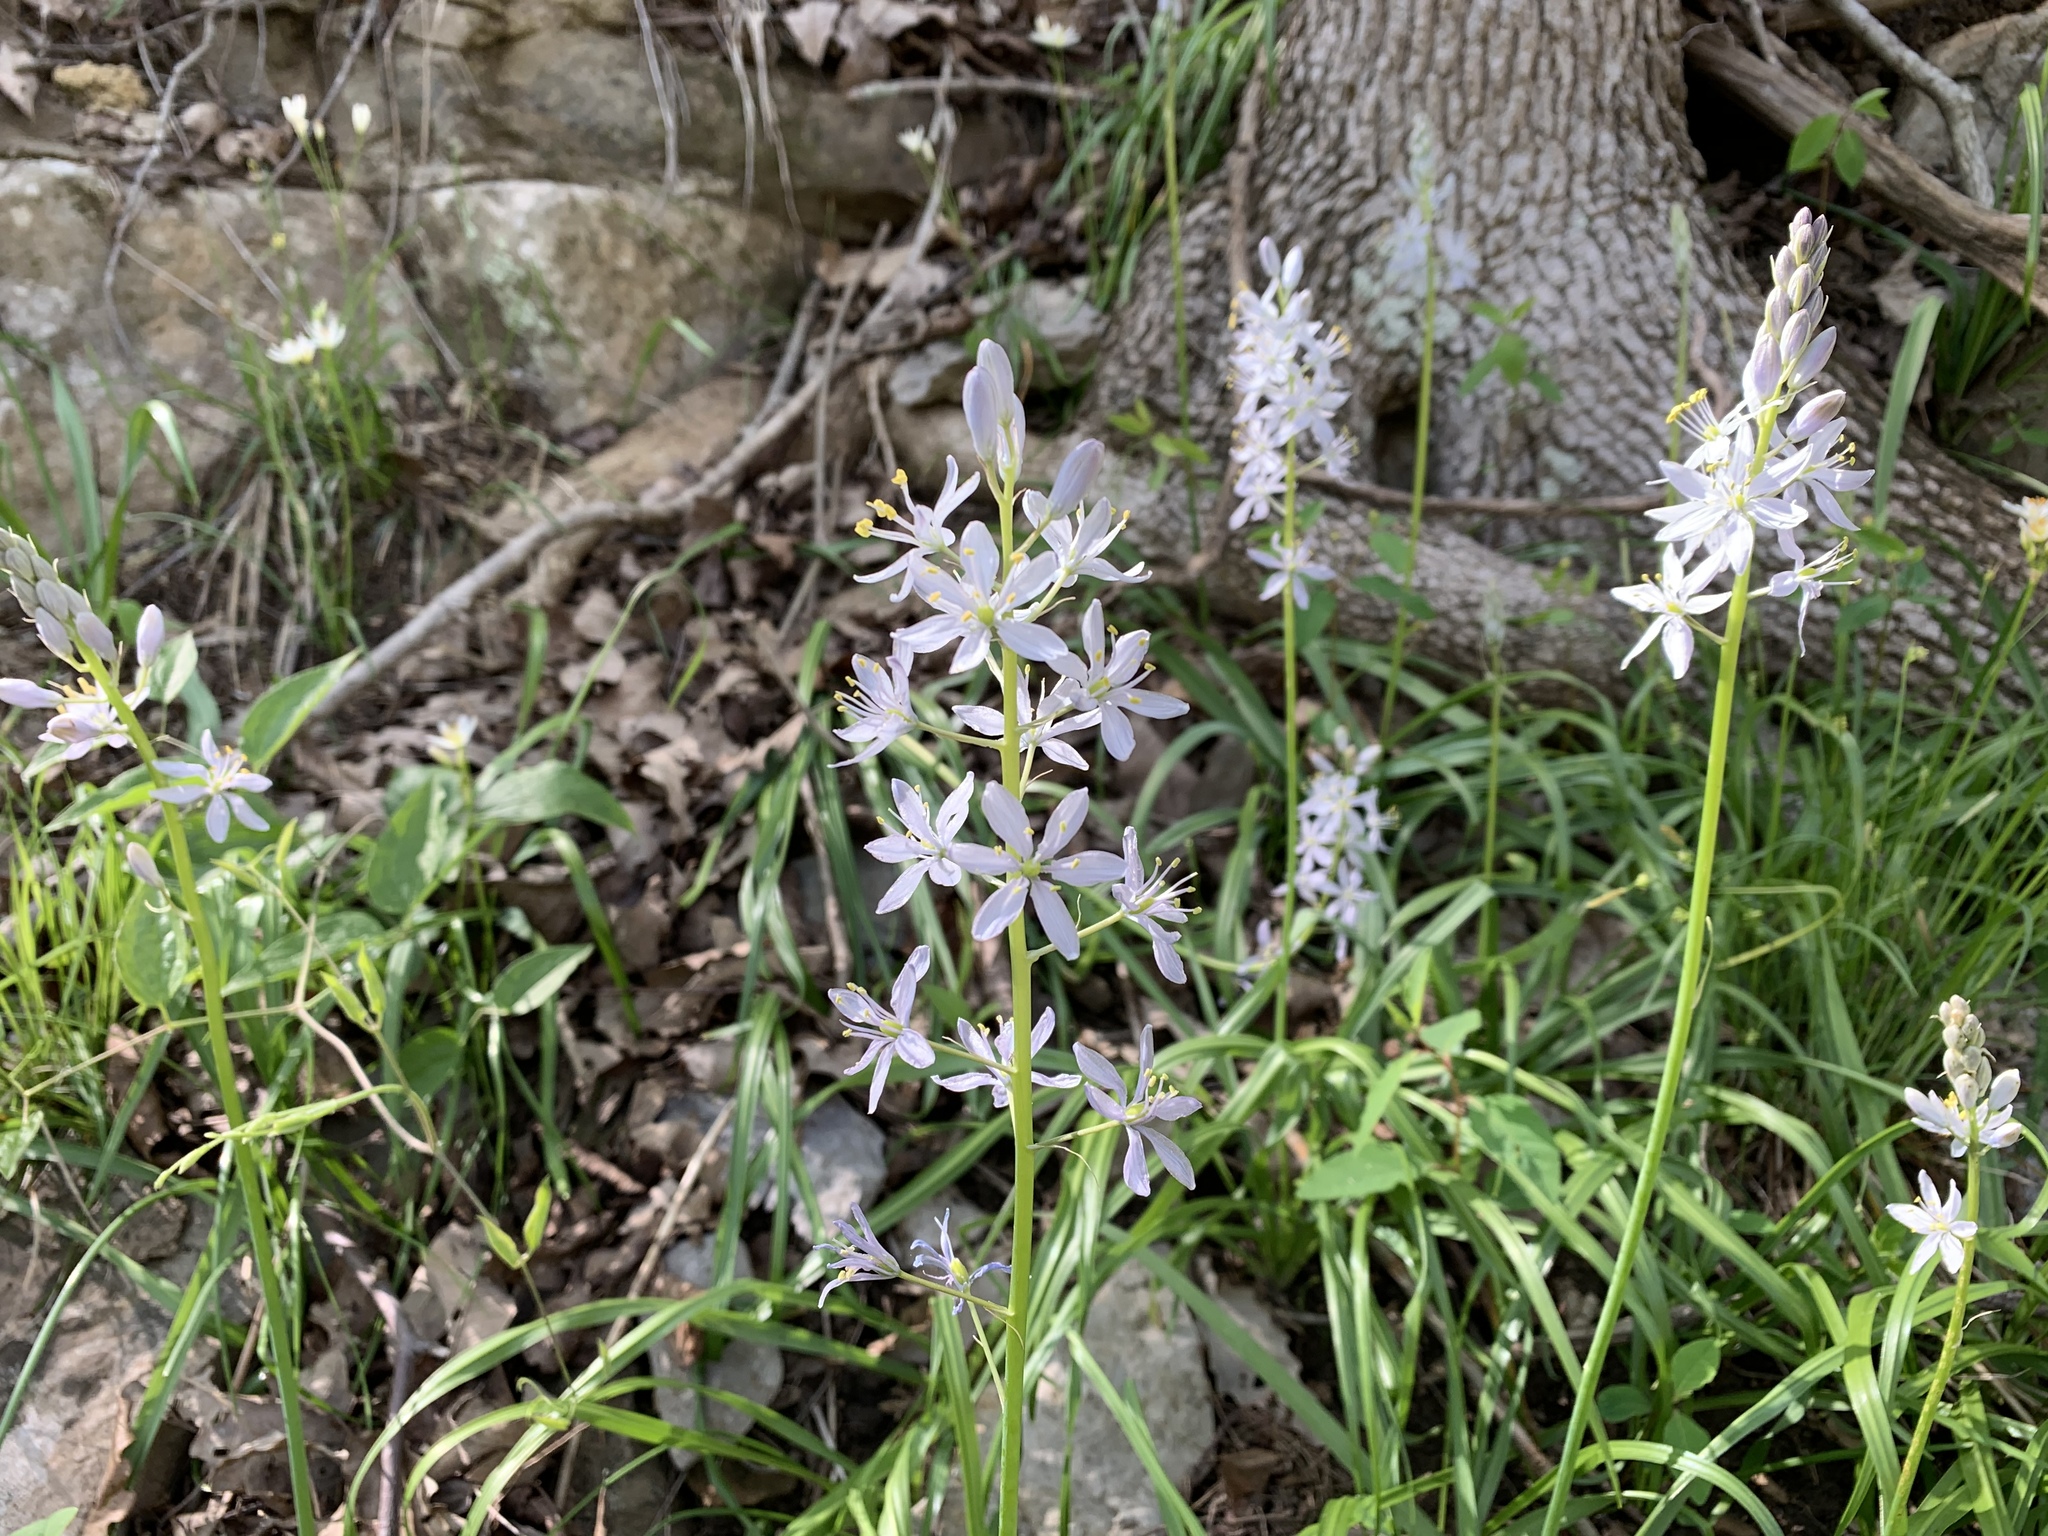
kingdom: Plantae
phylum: Tracheophyta
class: Liliopsida
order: Asparagales
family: Asparagaceae
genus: Camassia
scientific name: Camassia scilloides
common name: Wild hyacinth
